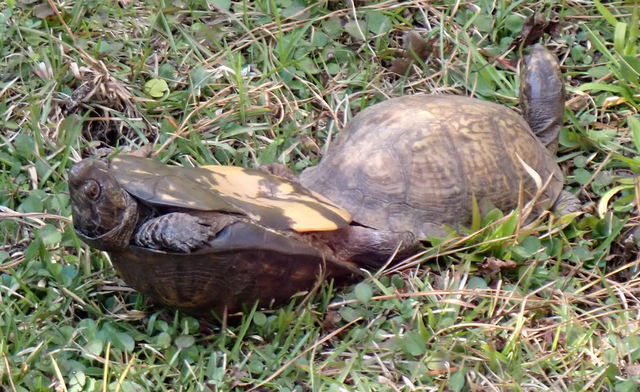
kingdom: Animalia
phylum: Chordata
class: Testudines
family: Emydidae
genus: Terrapene
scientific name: Terrapene carolina
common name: Common box turtle
